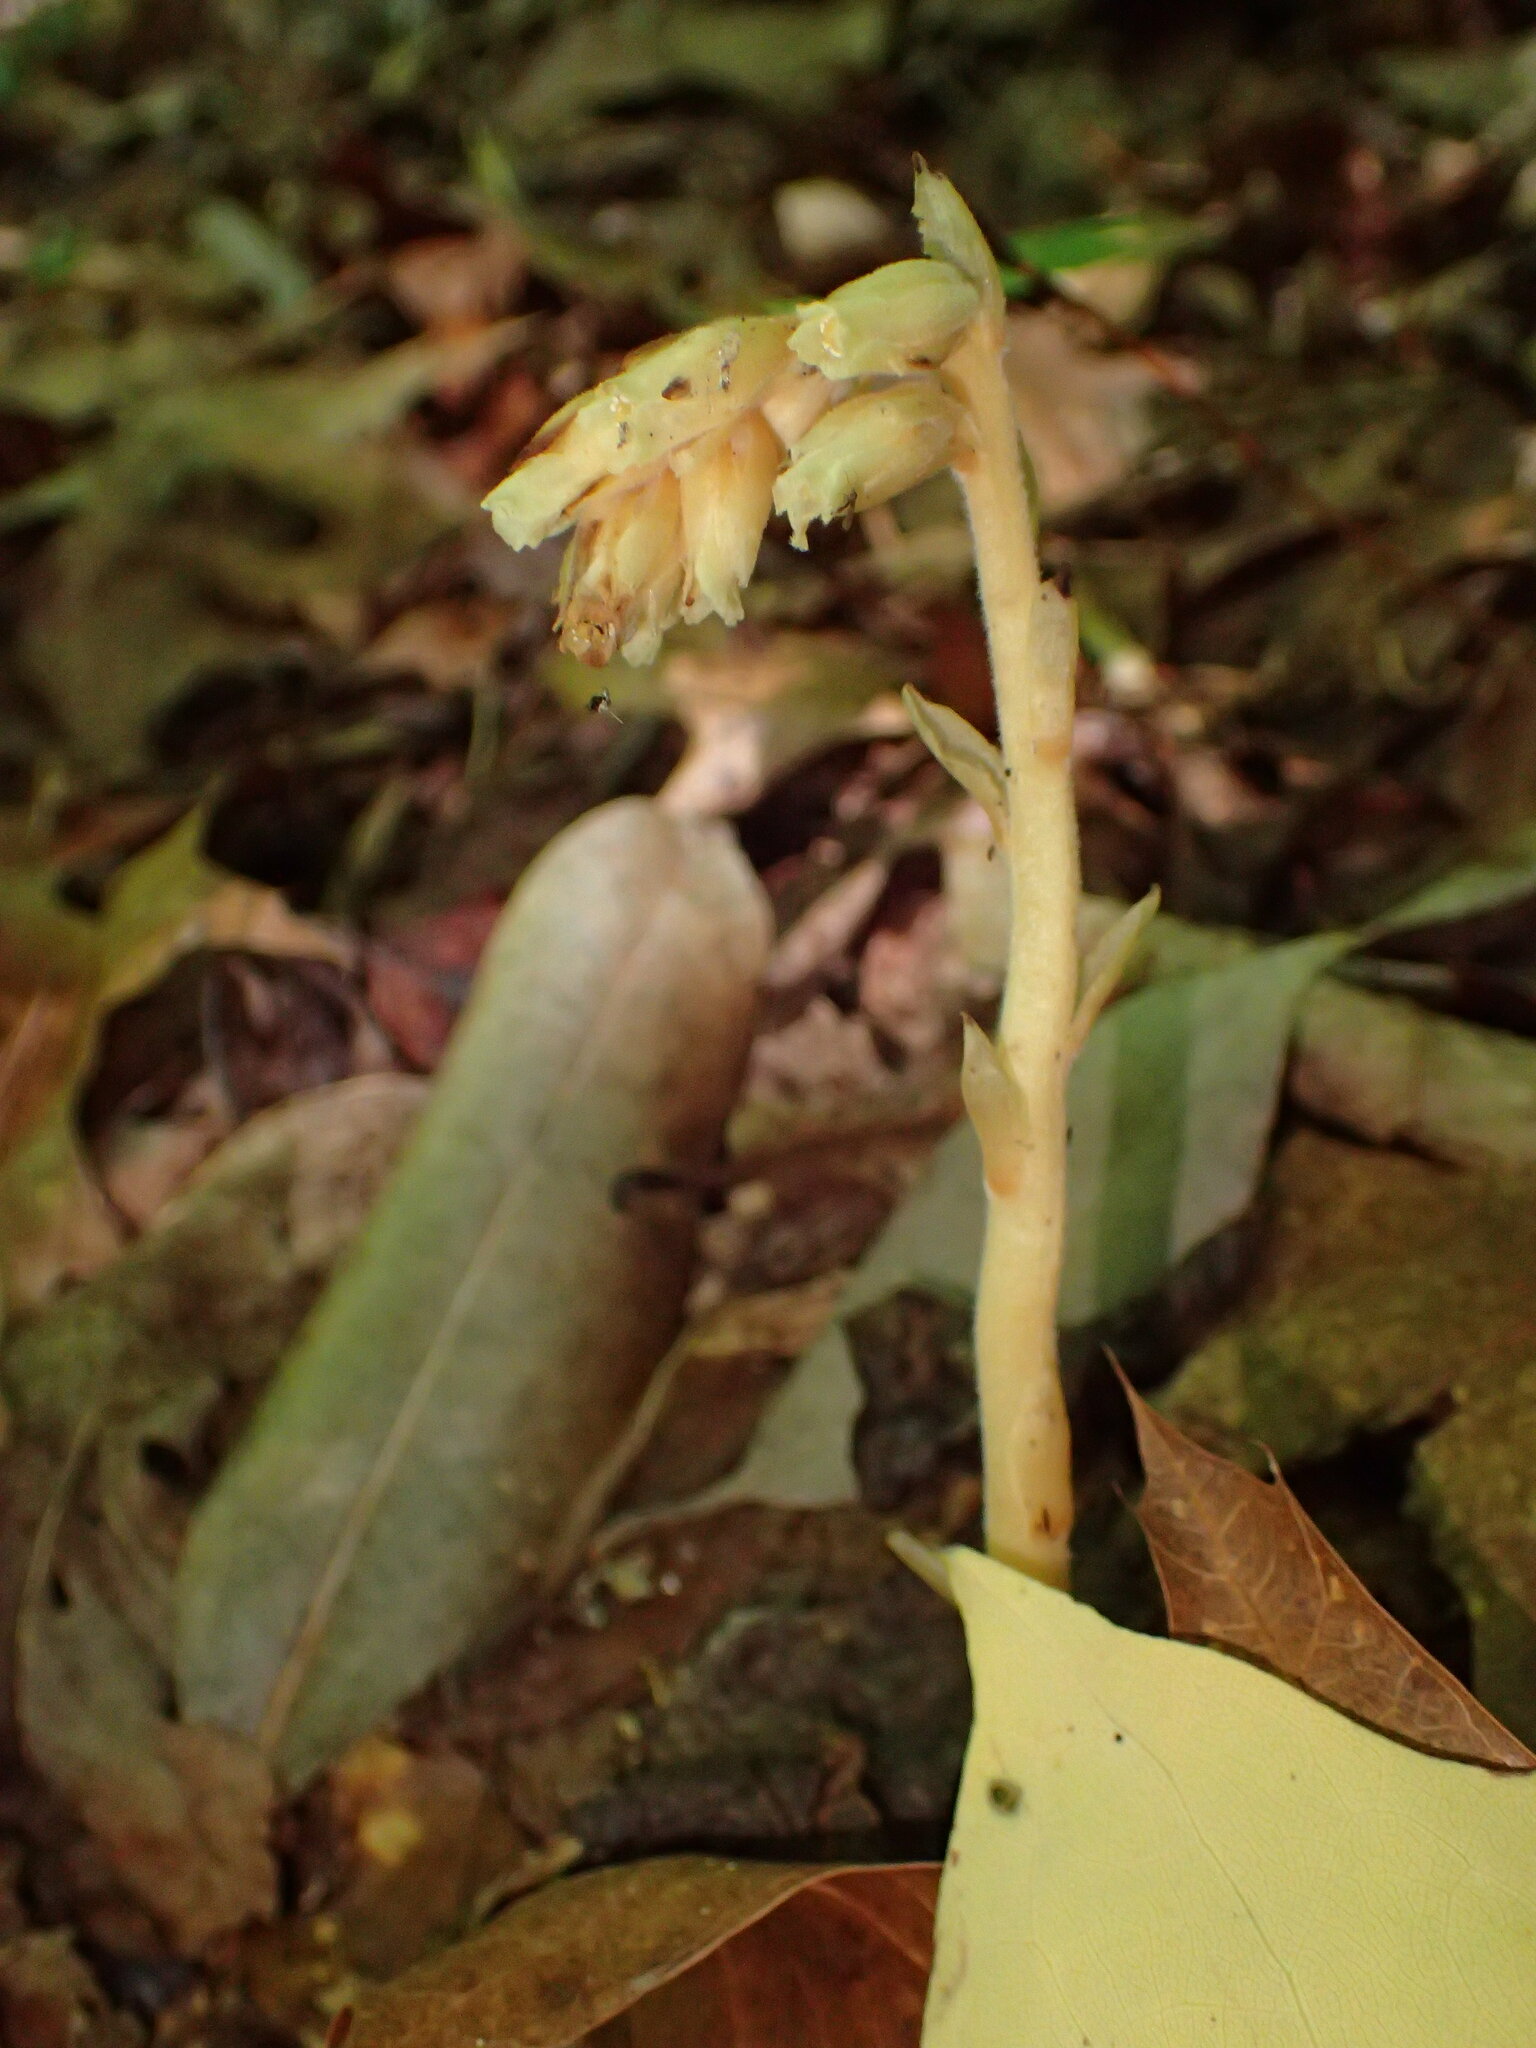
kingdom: Plantae
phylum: Tracheophyta
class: Magnoliopsida
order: Ericales
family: Ericaceae
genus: Hypopitys
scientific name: Hypopitys monotropa
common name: Yellow bird's-nest
